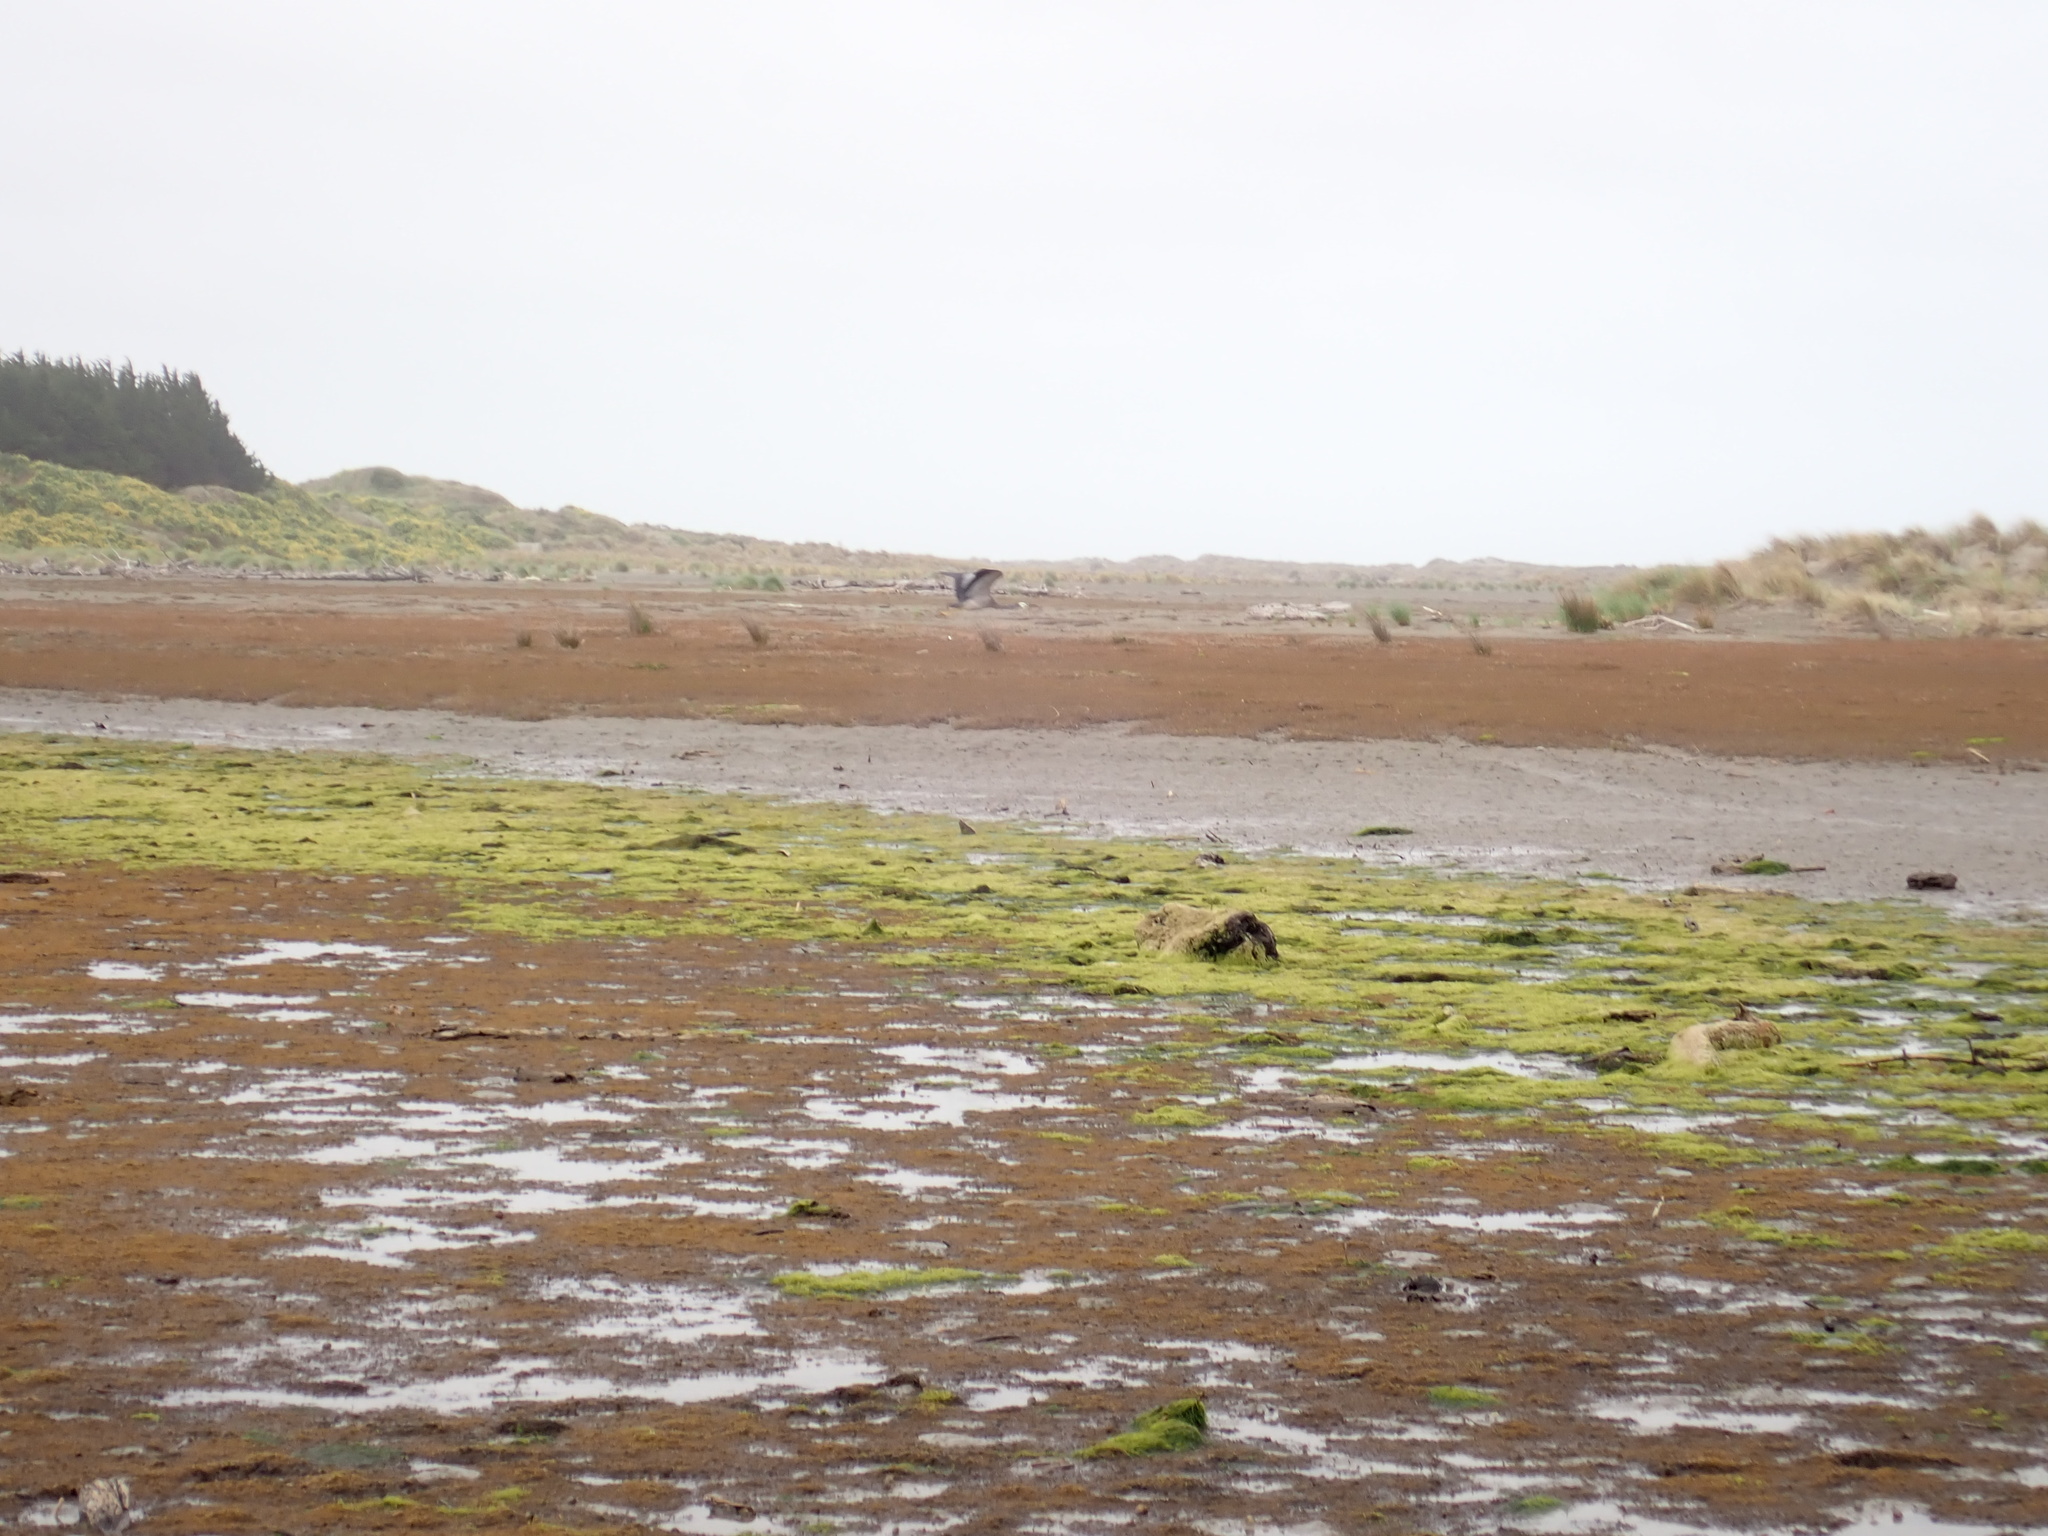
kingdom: Animalia
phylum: Chordata
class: Aves
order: Pelecaniformes
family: Ardeidae
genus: Egretta
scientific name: Egretta novaehollandiae
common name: White-faced heron
